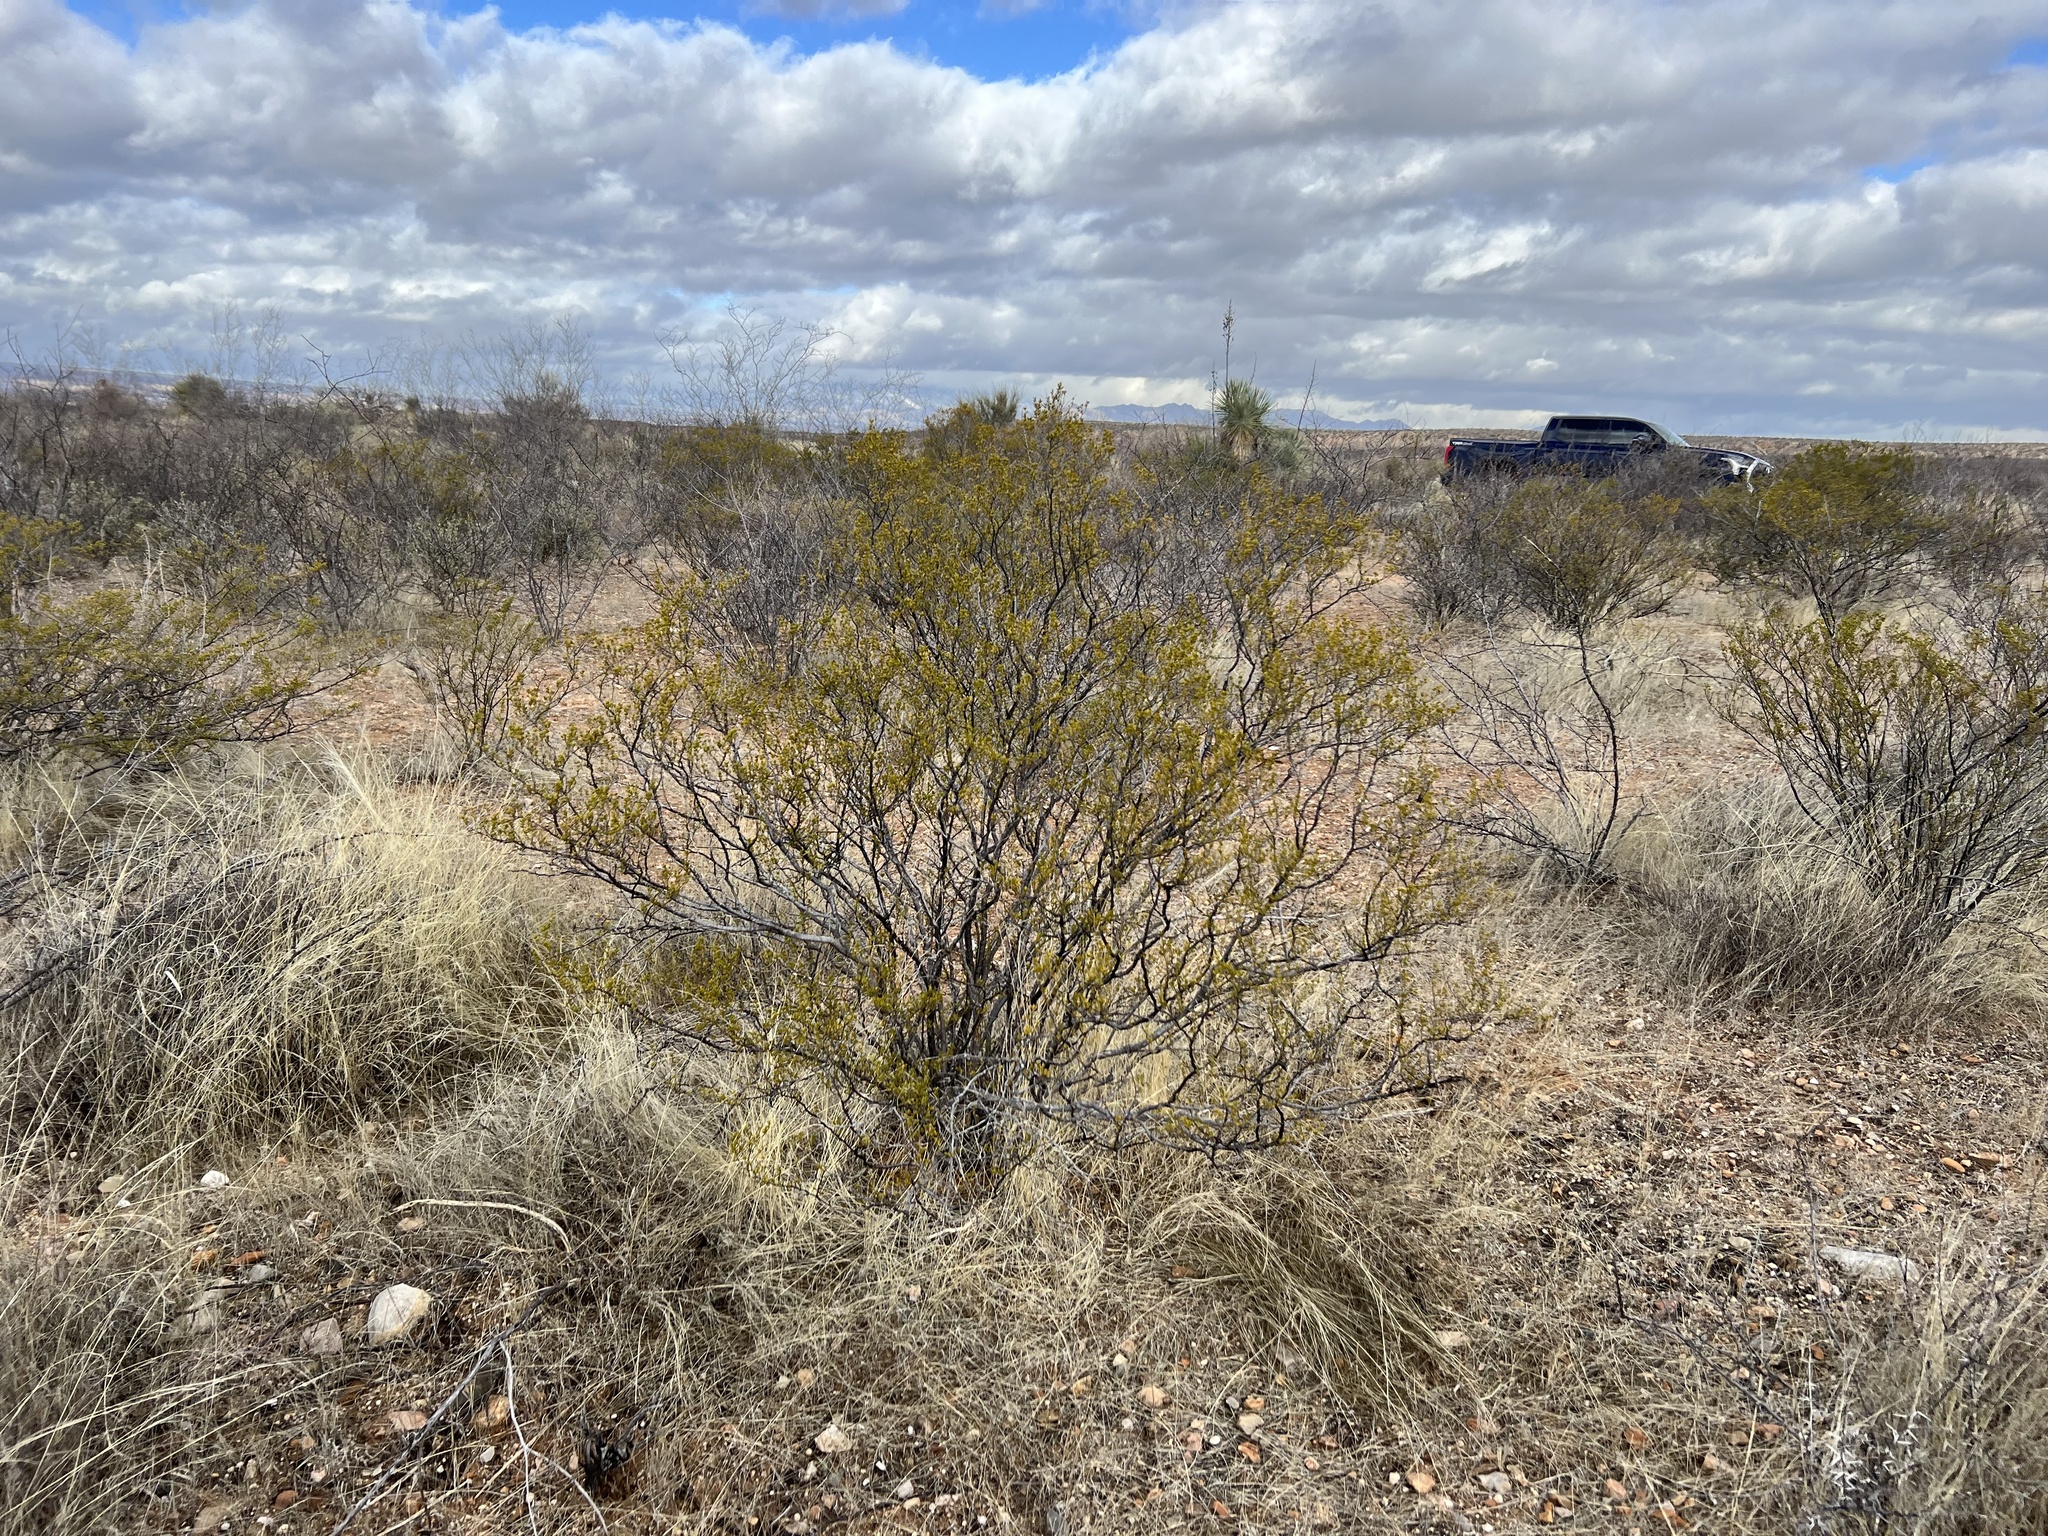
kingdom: Plantae
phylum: Tracheophyta
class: Magnoliopsida
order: Zygophyllales
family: Zygophyllaceae
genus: Larrea
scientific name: Larrea tridentata
